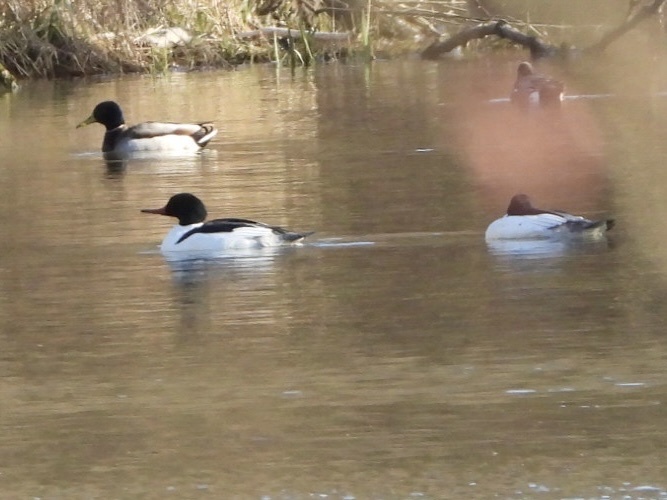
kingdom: Animalia
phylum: Chordata
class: Aves
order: Anseriformes
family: Anatidae
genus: Mergus
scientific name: Mergus merganser
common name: Common merganser
